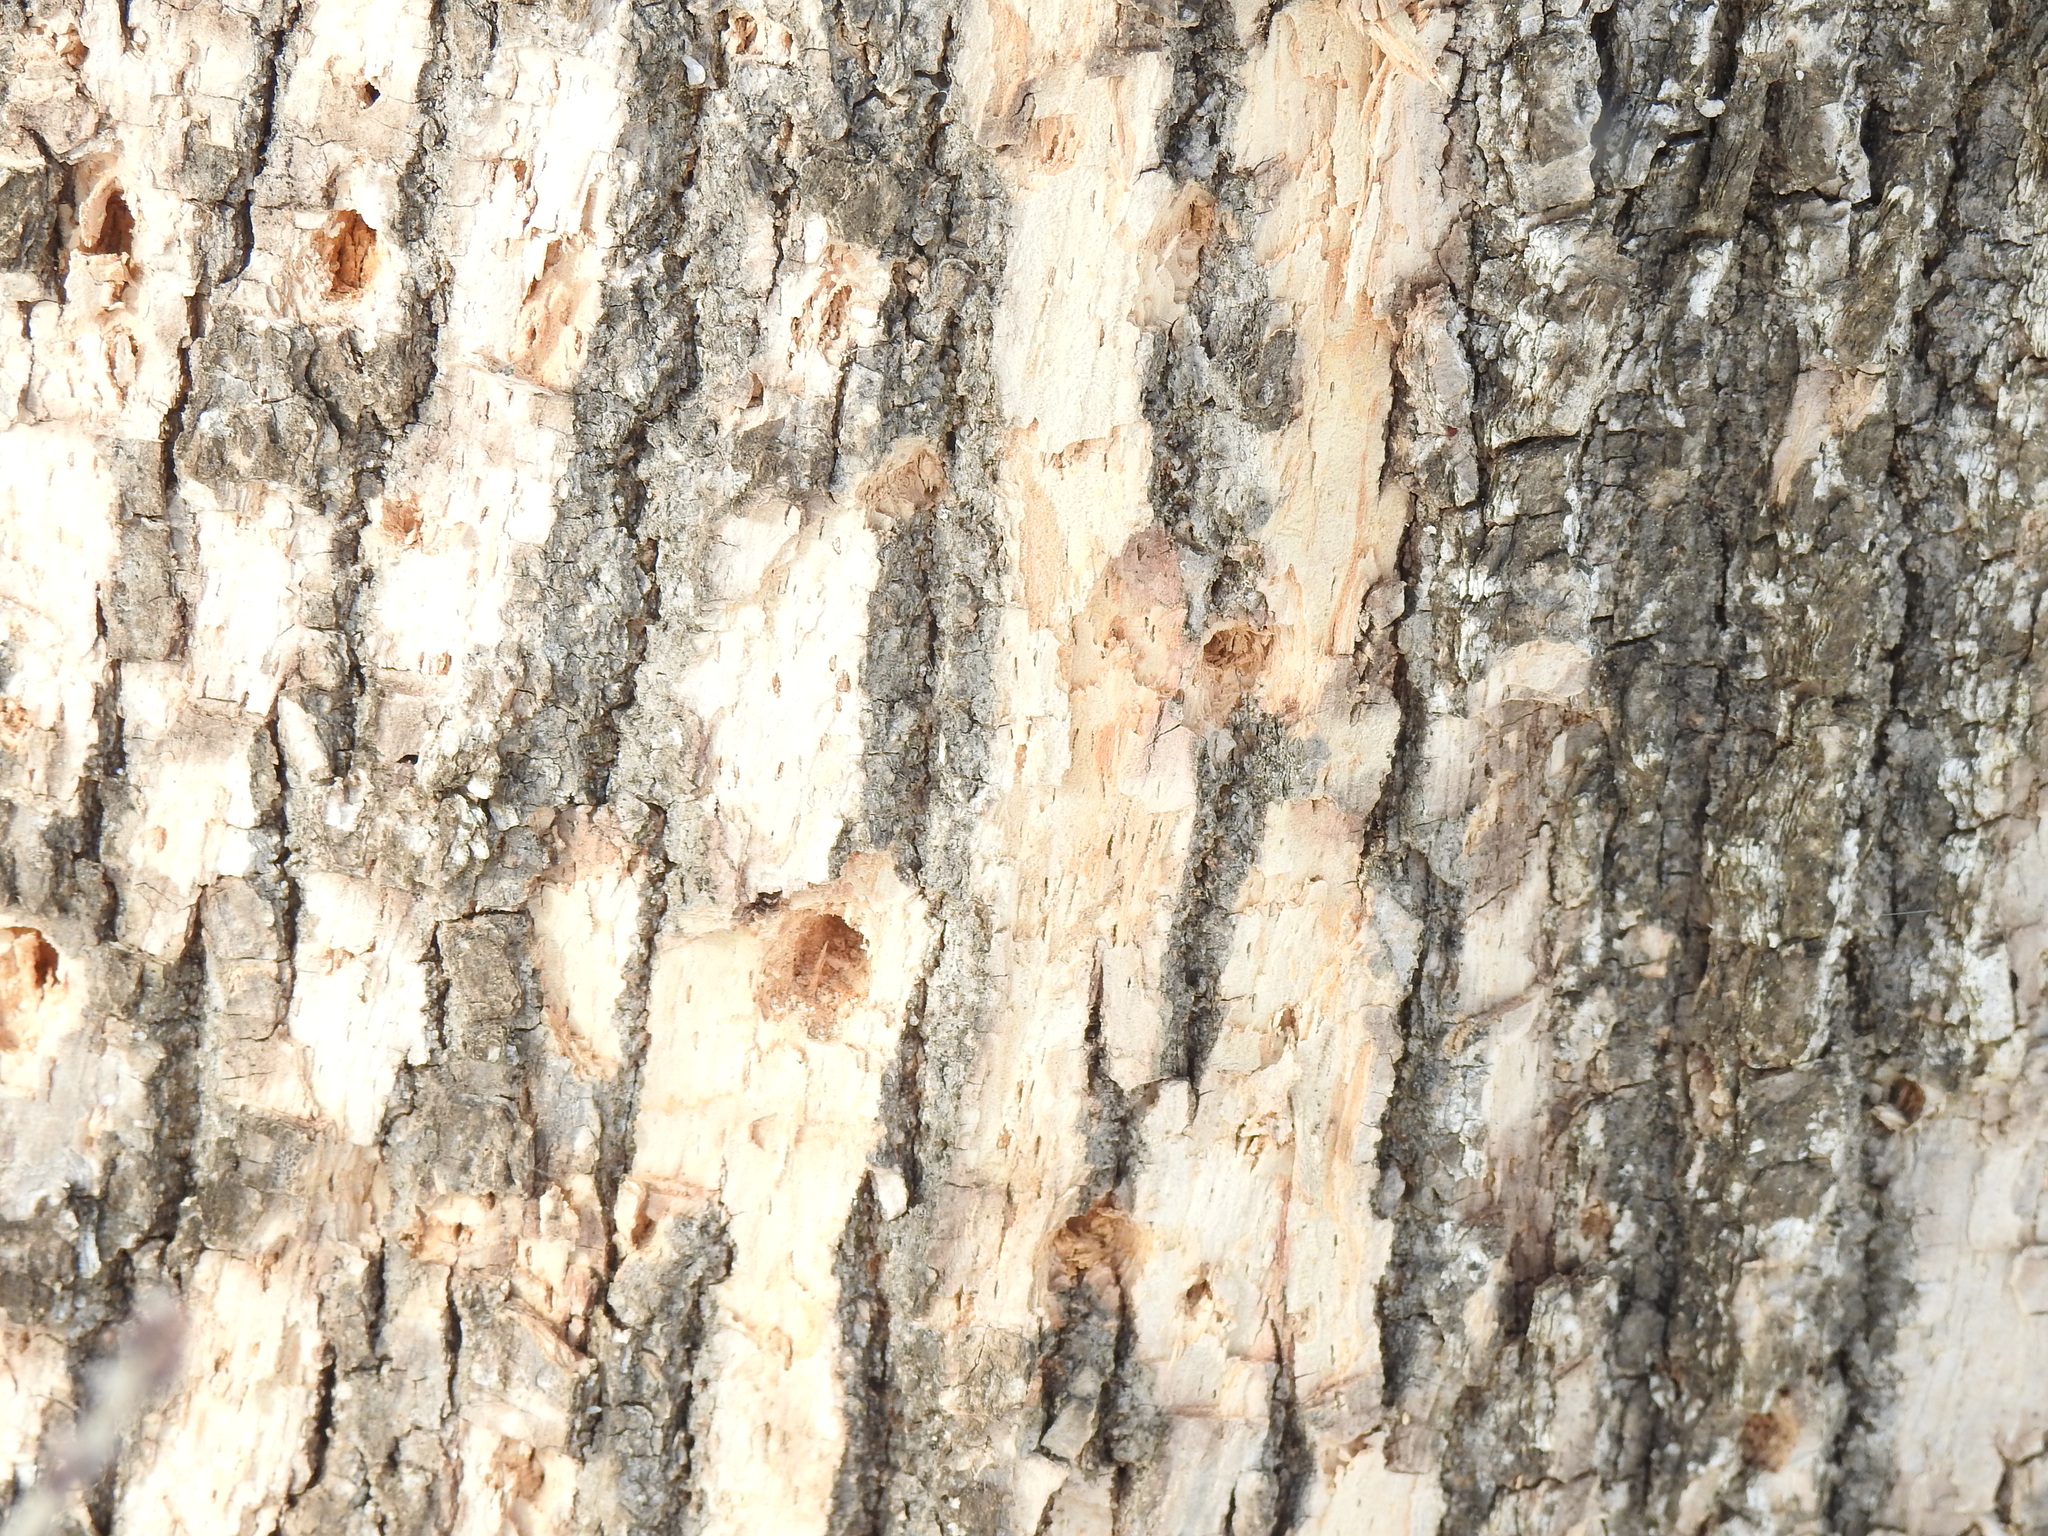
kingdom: Animalia
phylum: Chordata
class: Aves
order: Piciformes
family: Picidae
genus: Dryobates
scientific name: Dryobates pubescens
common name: Downy woodpecker
